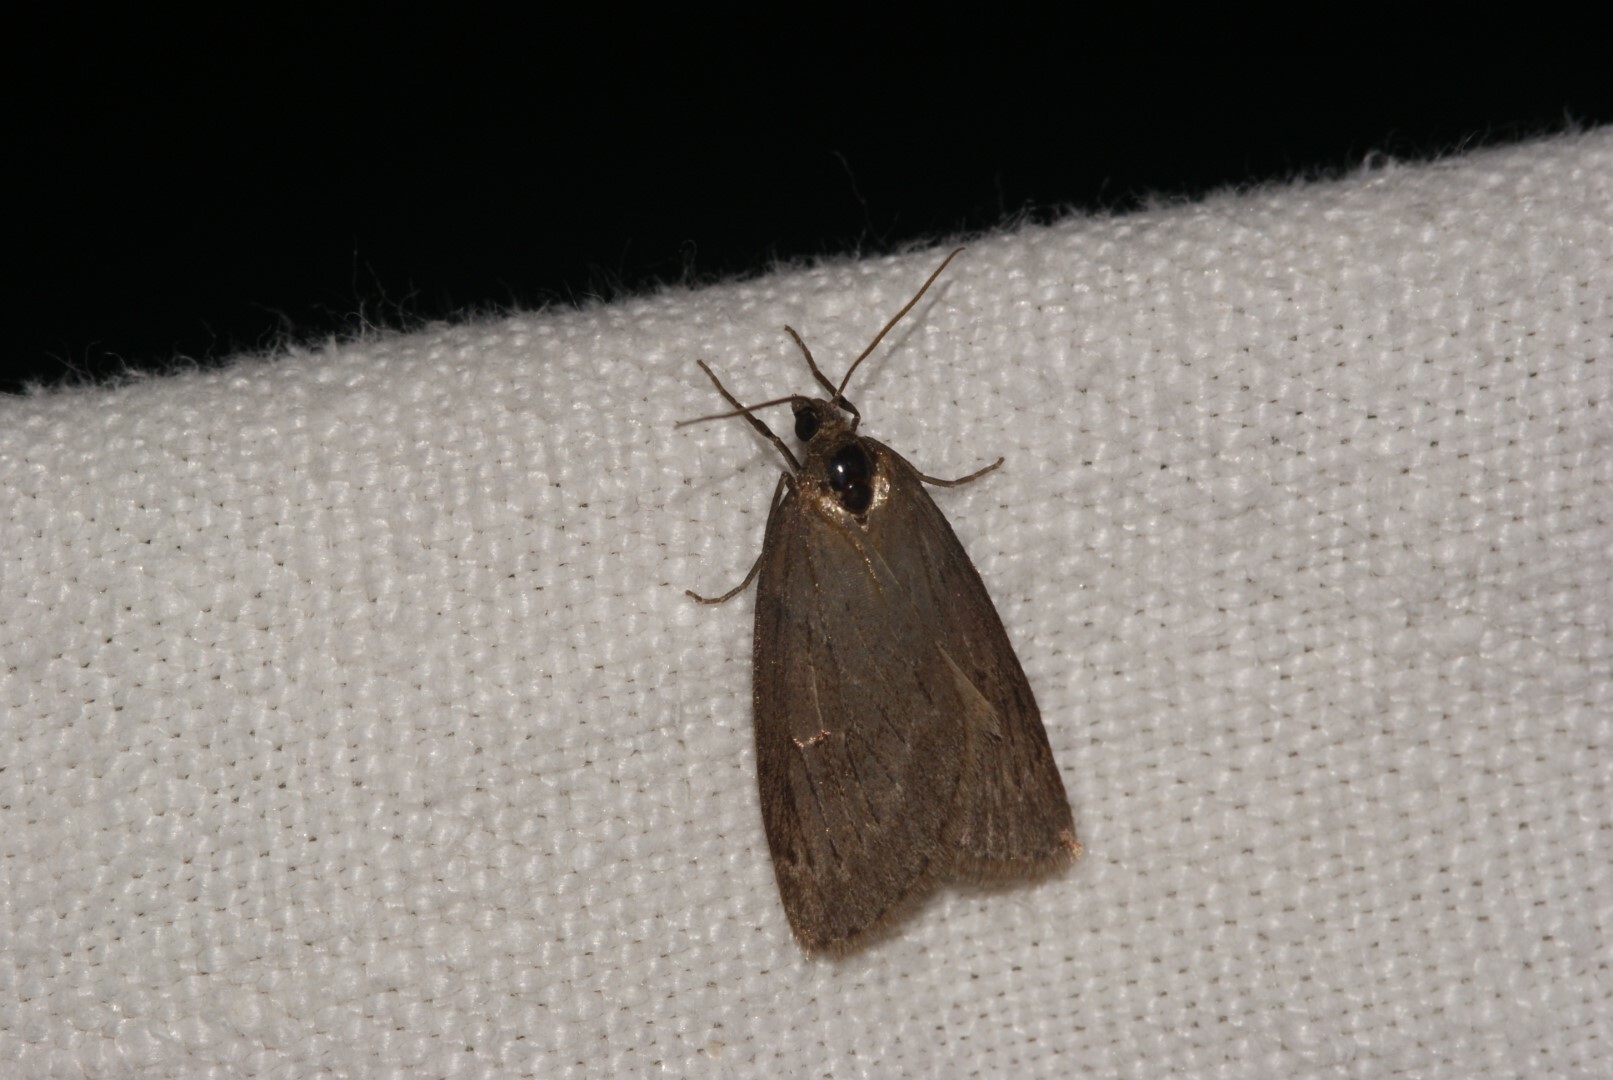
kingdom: Animalia
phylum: Arthropoda
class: Insecta
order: Lepidoptera
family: Geometridae
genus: Pachycnemia
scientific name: Pachycnemia hippocastanaria
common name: Horse chestnut
